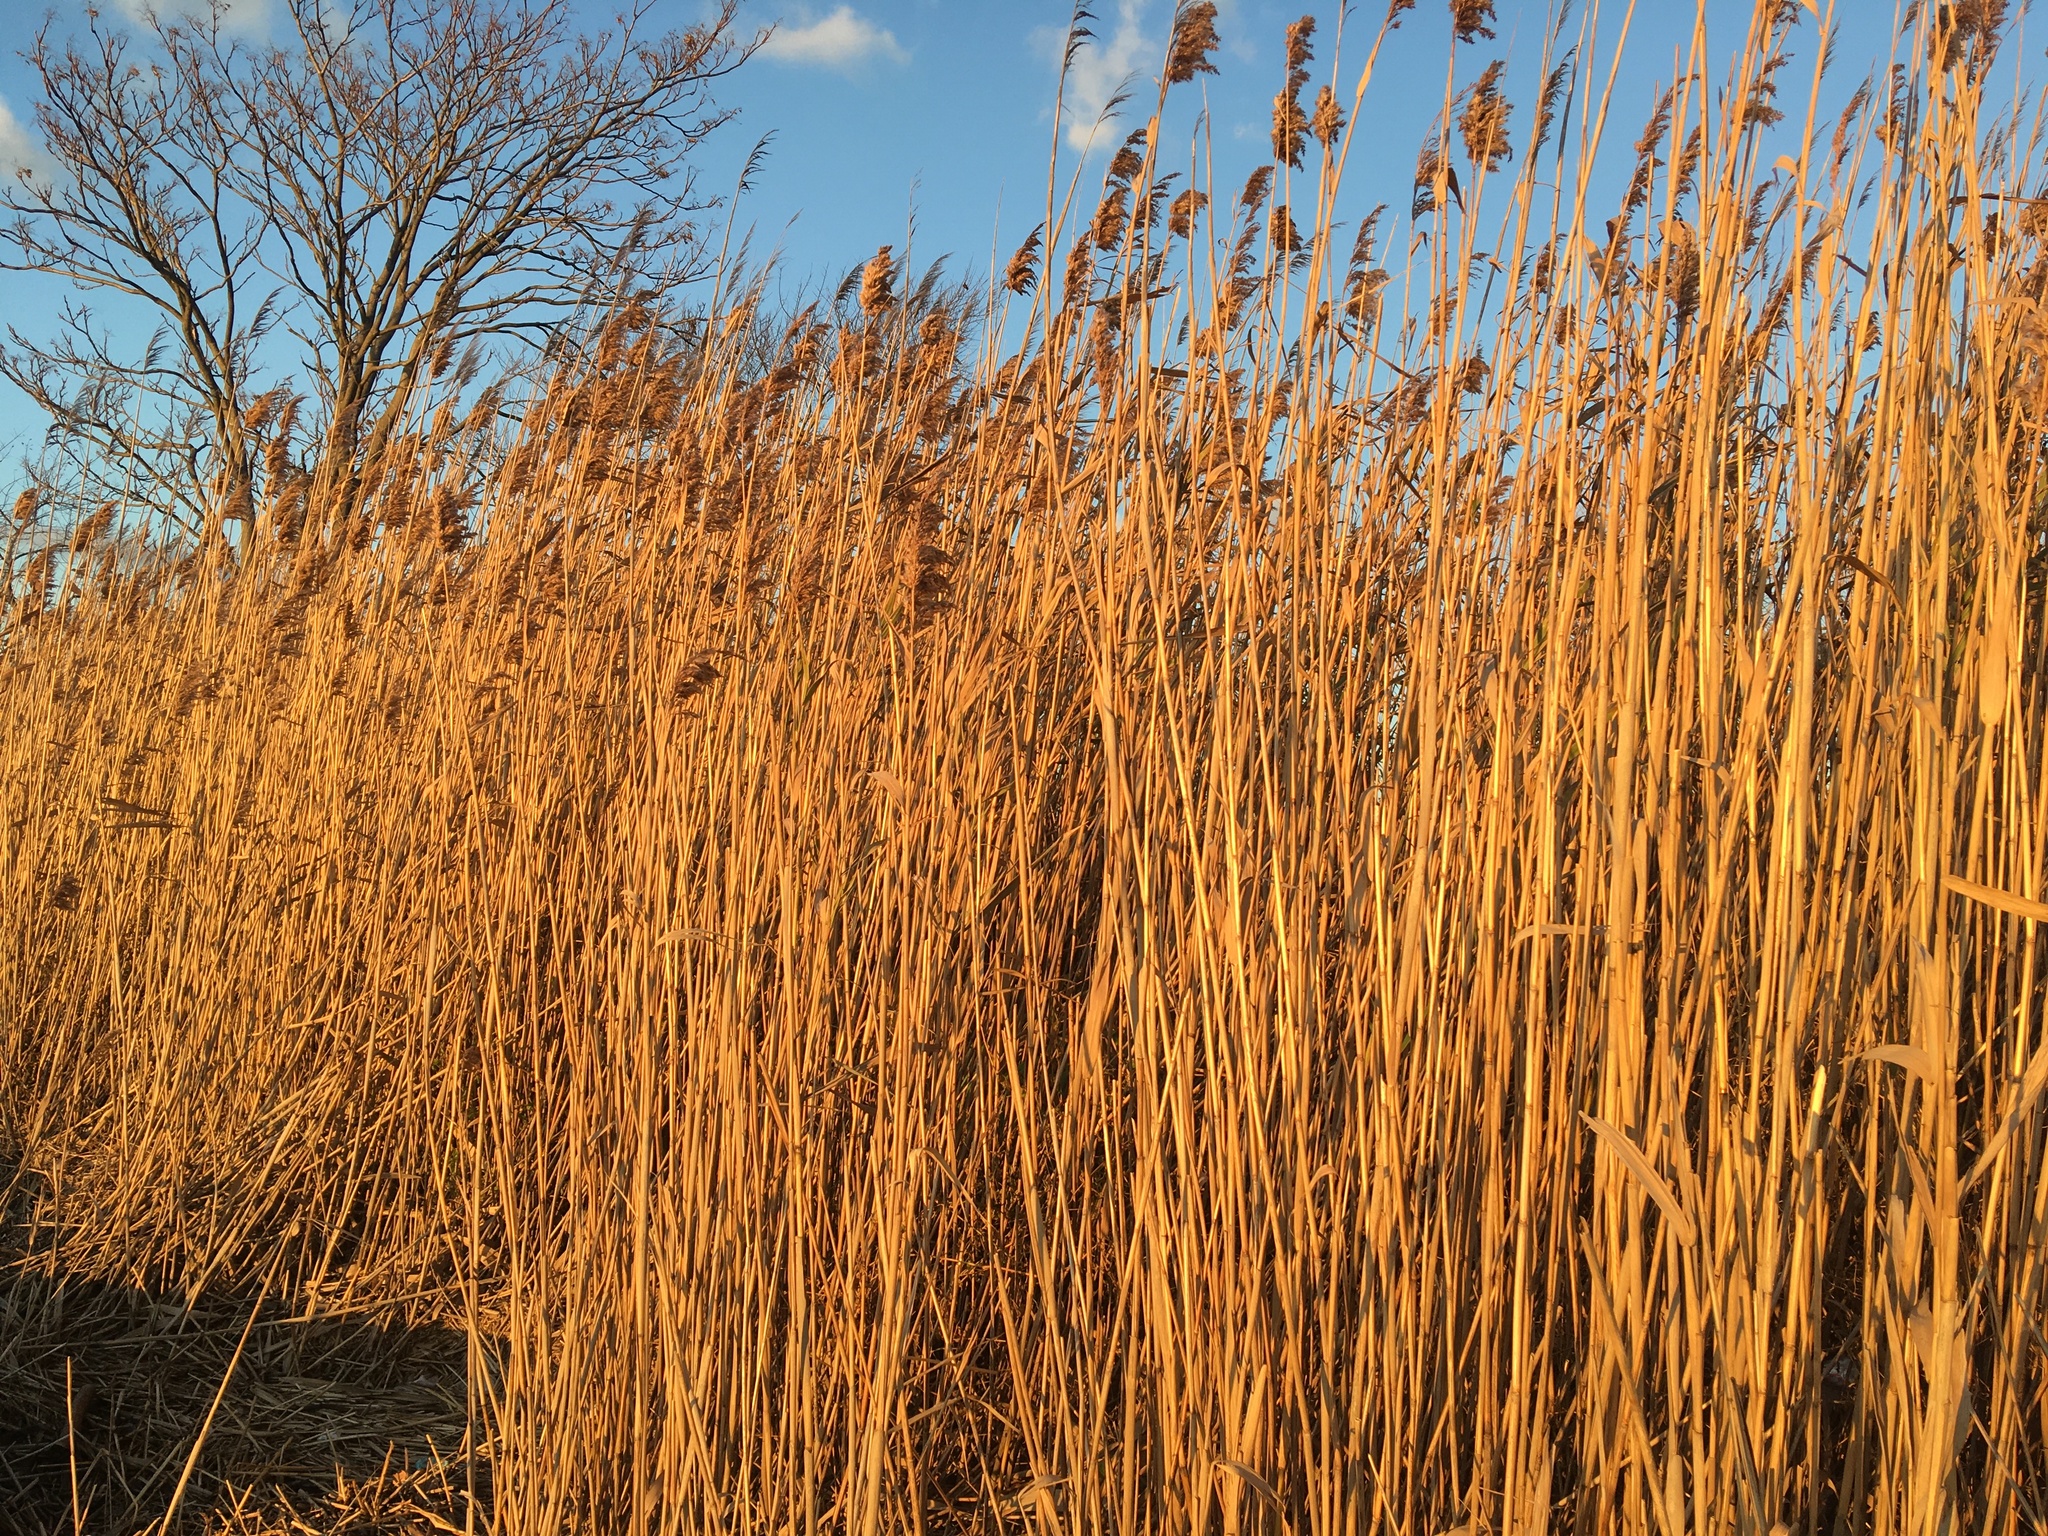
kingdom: Plantae
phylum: Tracheophyta
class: Liliopsida
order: Poales
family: Poaceae
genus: Phragmites
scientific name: Phragmites australis
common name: Common reed
